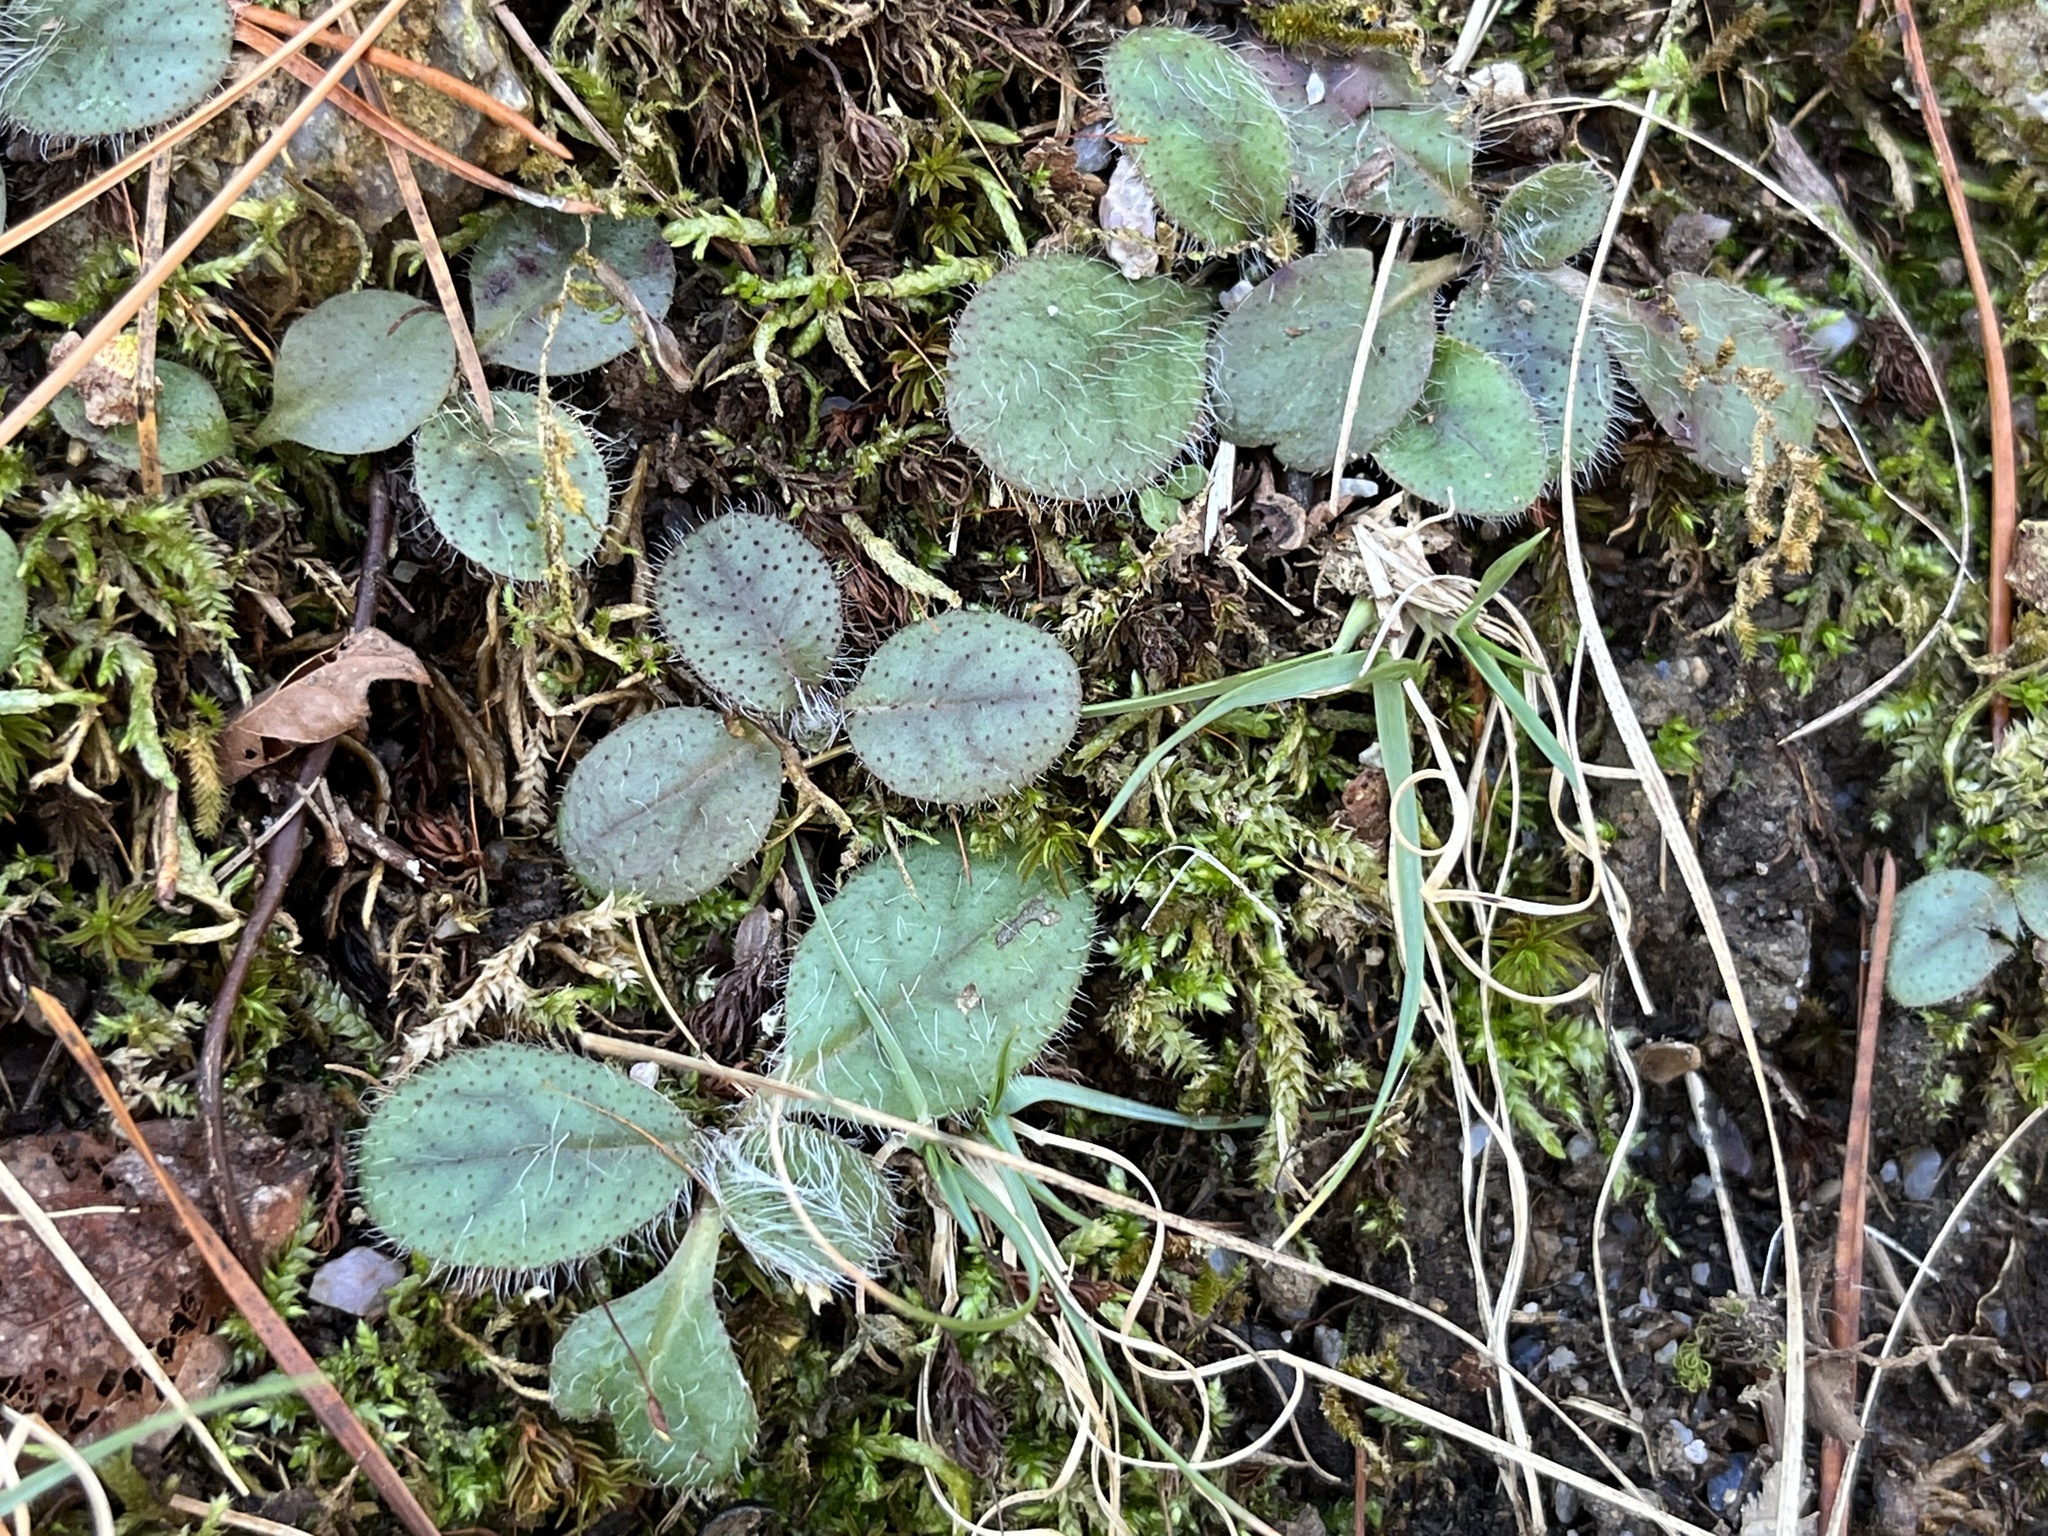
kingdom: Plantae
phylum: Tracheophyta
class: Magnoliopsida
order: Asterales
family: Asteraceae
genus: Hieracium
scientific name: Hieracium venosum
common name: Rattlesnake hawkweed
